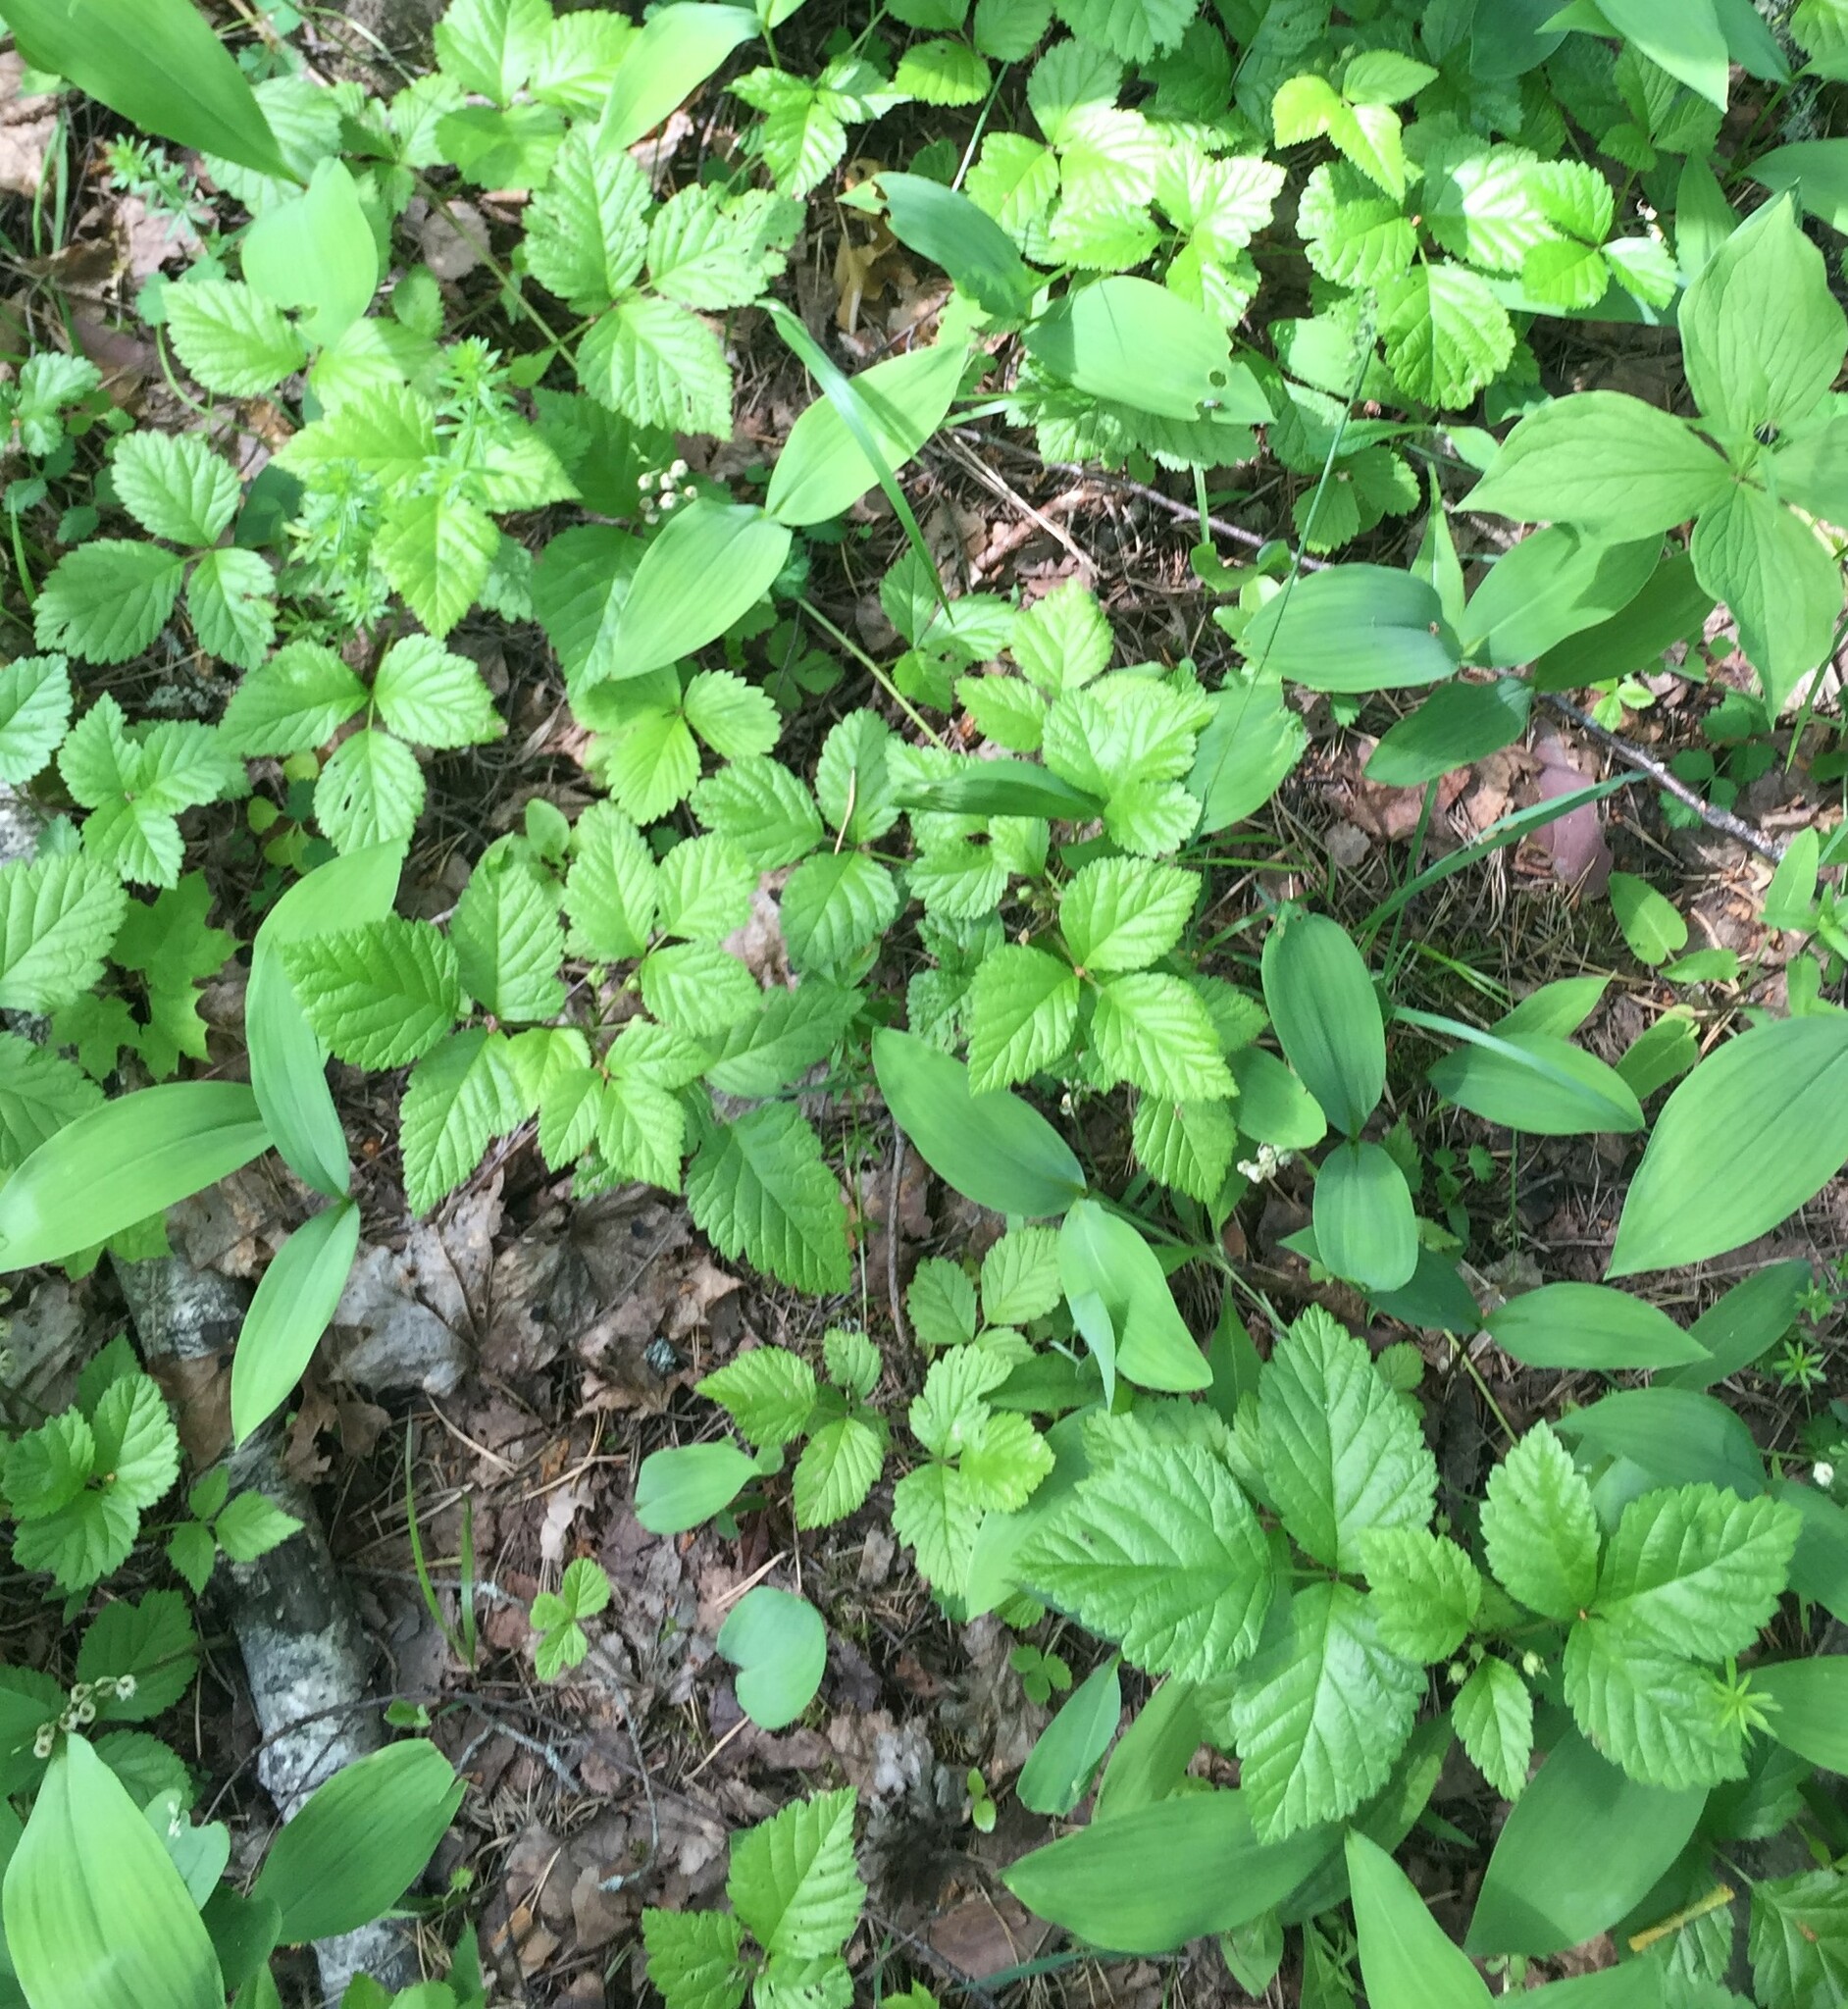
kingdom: Plantae
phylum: Tracheophyta
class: Magnoliopsida
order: Rosales
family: Rosaceae
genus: Rubus
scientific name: Rubus saxatilis
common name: Stone bramble
